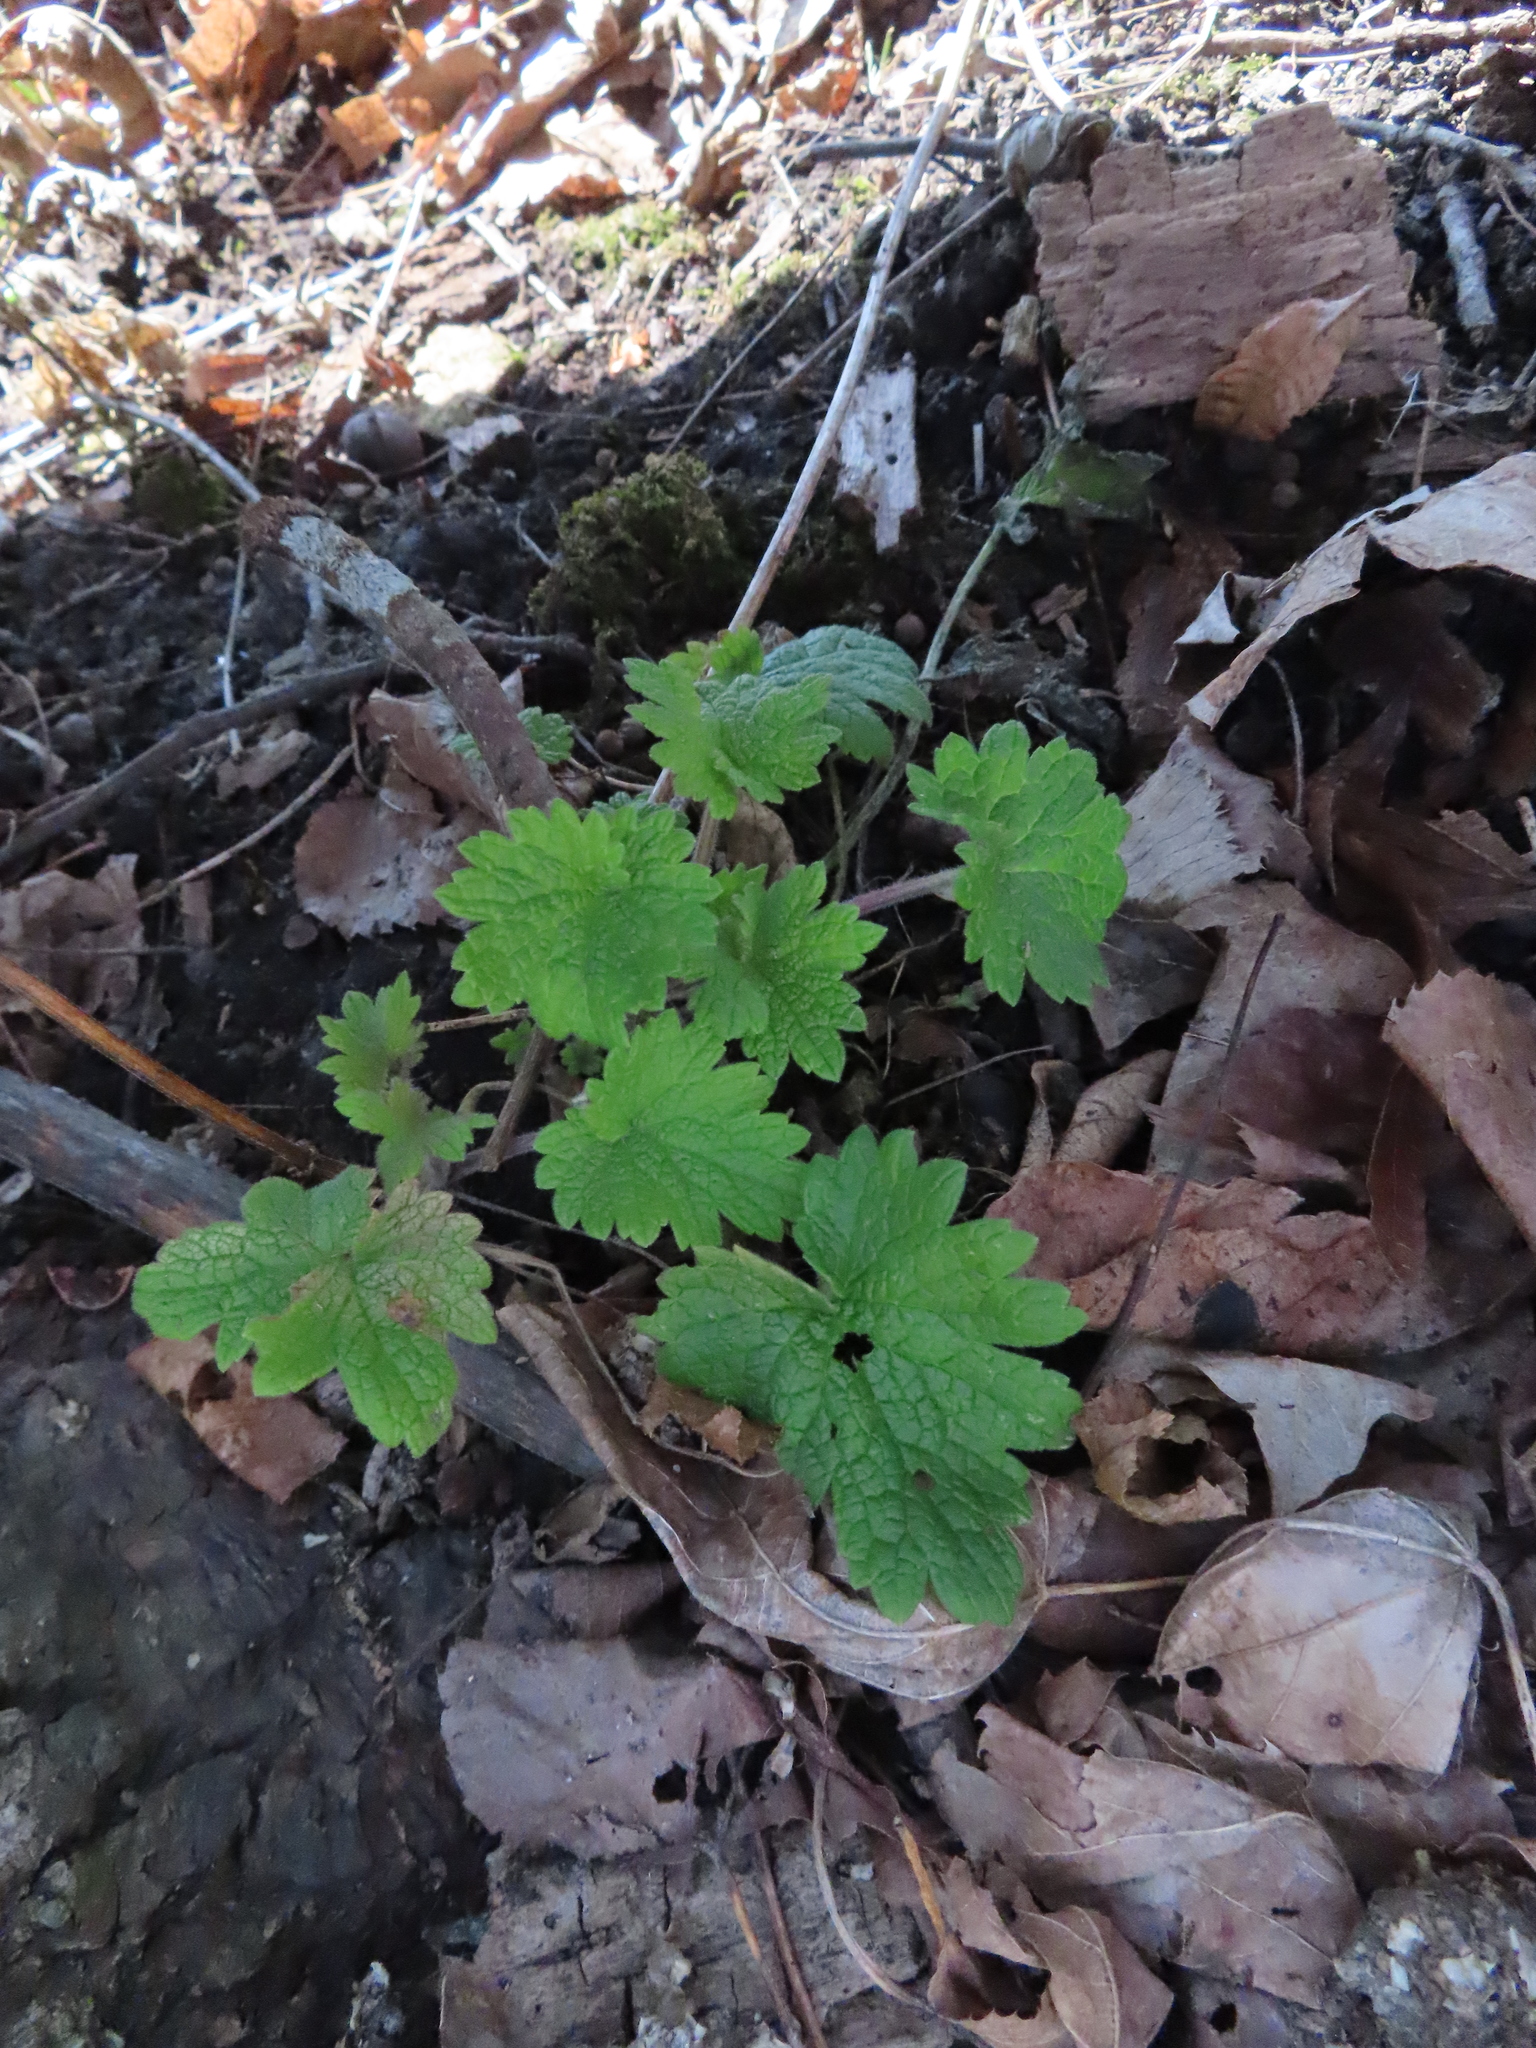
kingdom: Plantae
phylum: Tracheophyta
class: Magnoliopsida
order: Lamiales
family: Lamiaceae
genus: Leonurus
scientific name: Leonurus cardiaca
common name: Motherwort
